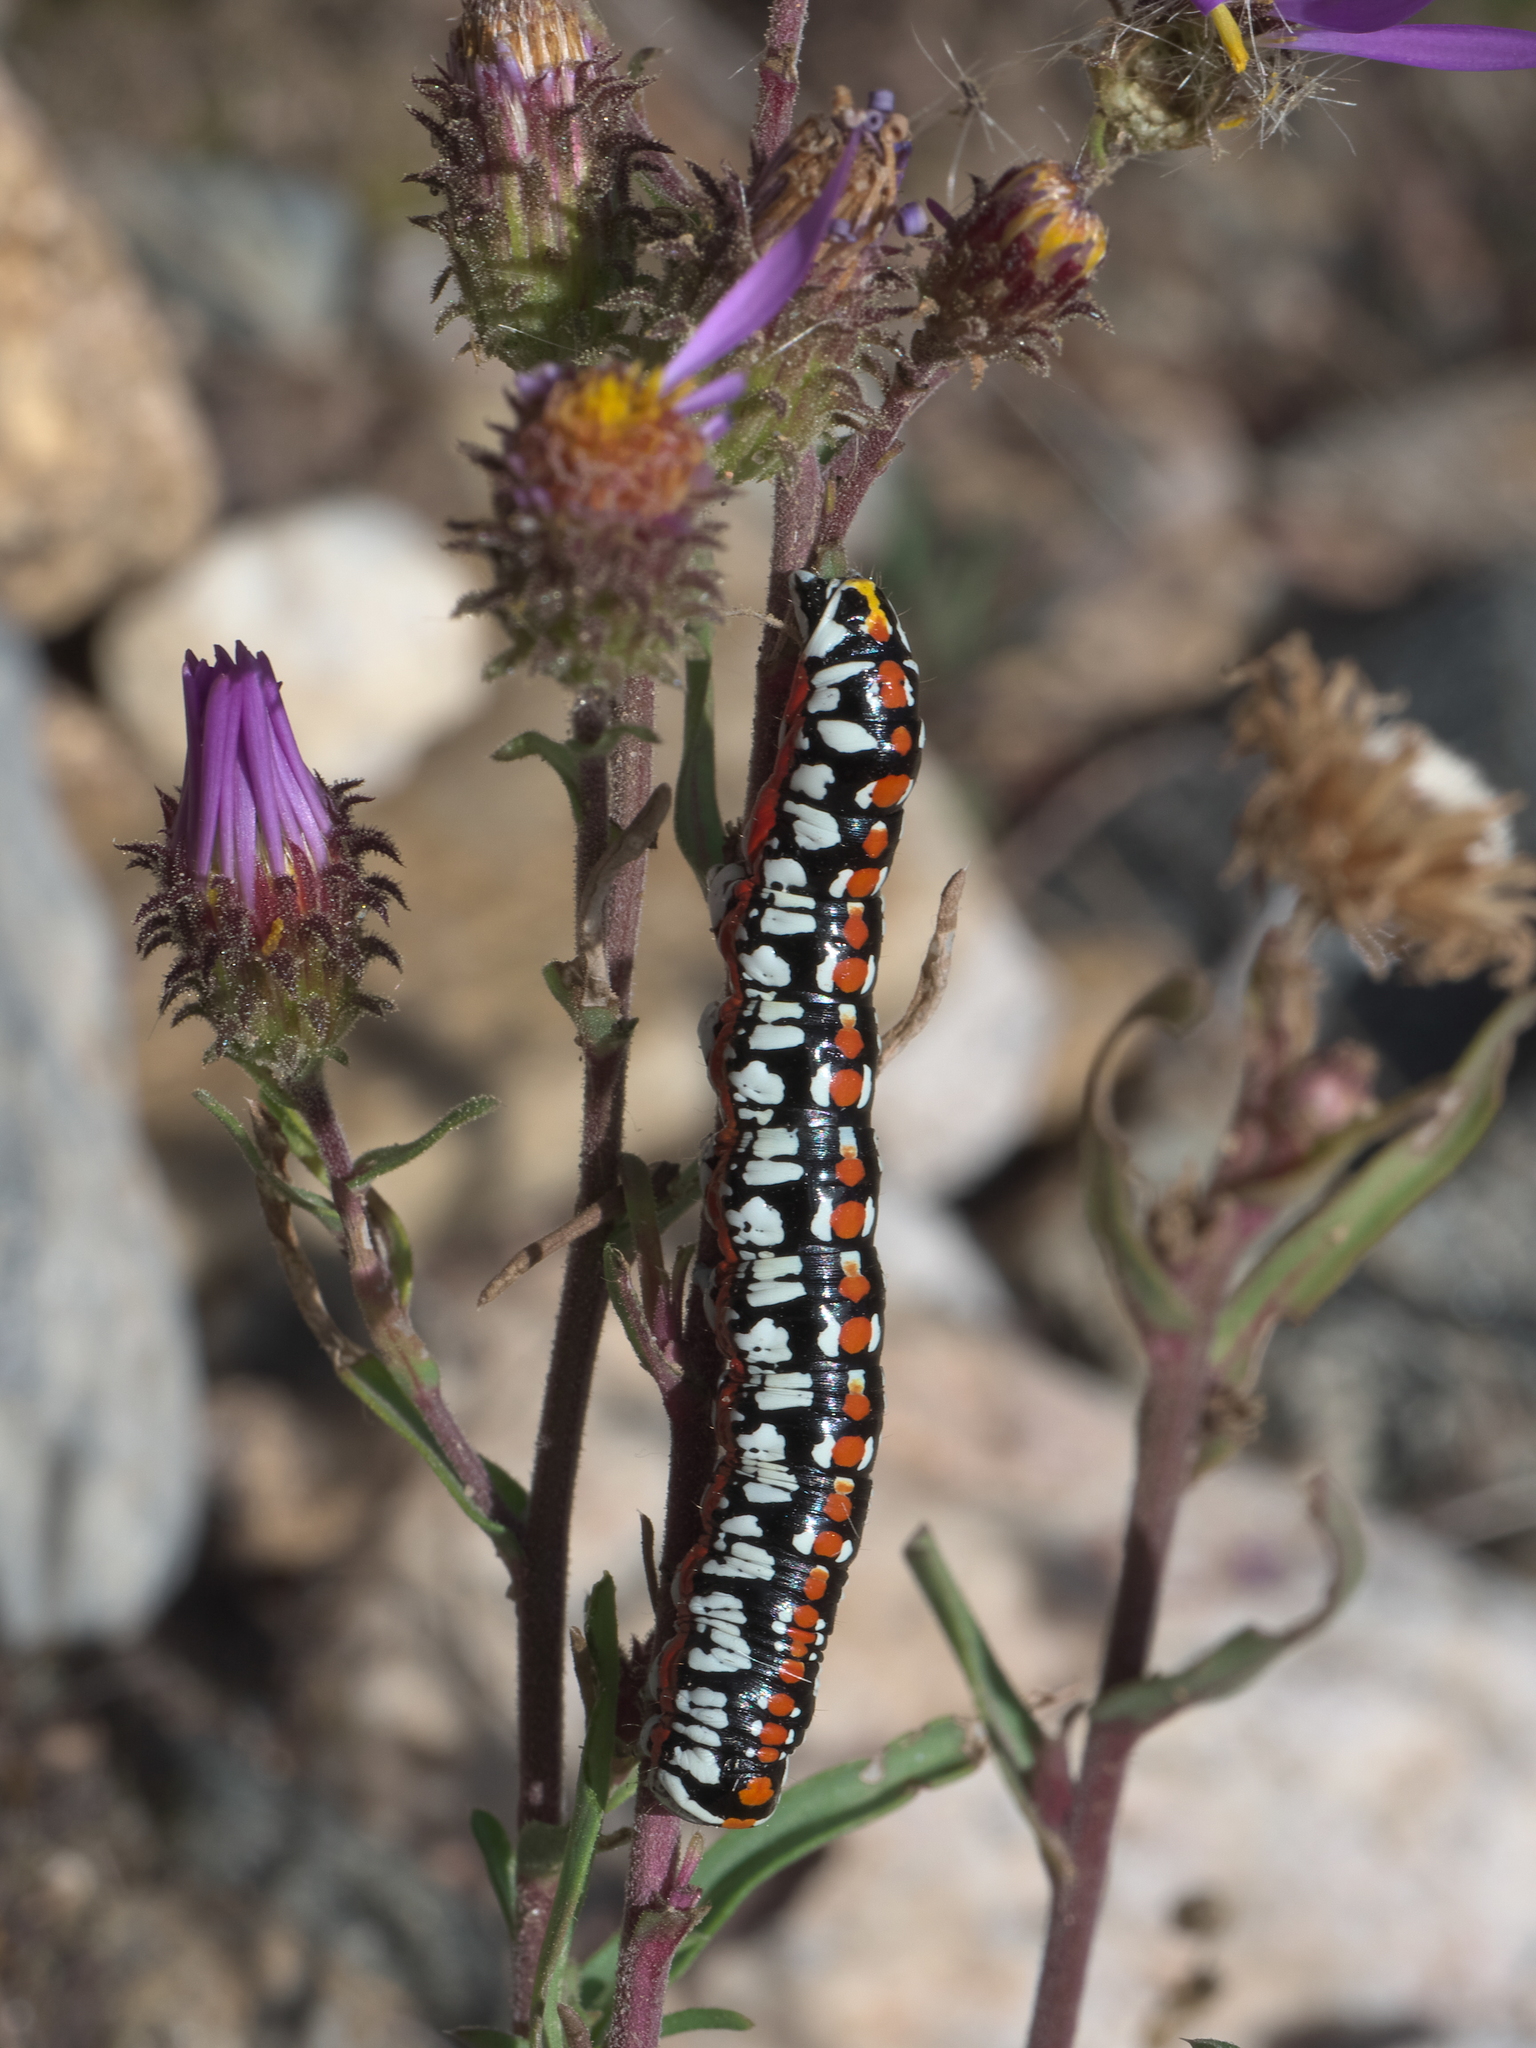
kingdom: Animalia
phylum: Arthropoda
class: Insecta
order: Lepidoptera
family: Noctuidae
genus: Cucullia
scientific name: Cucullia dorsalis
